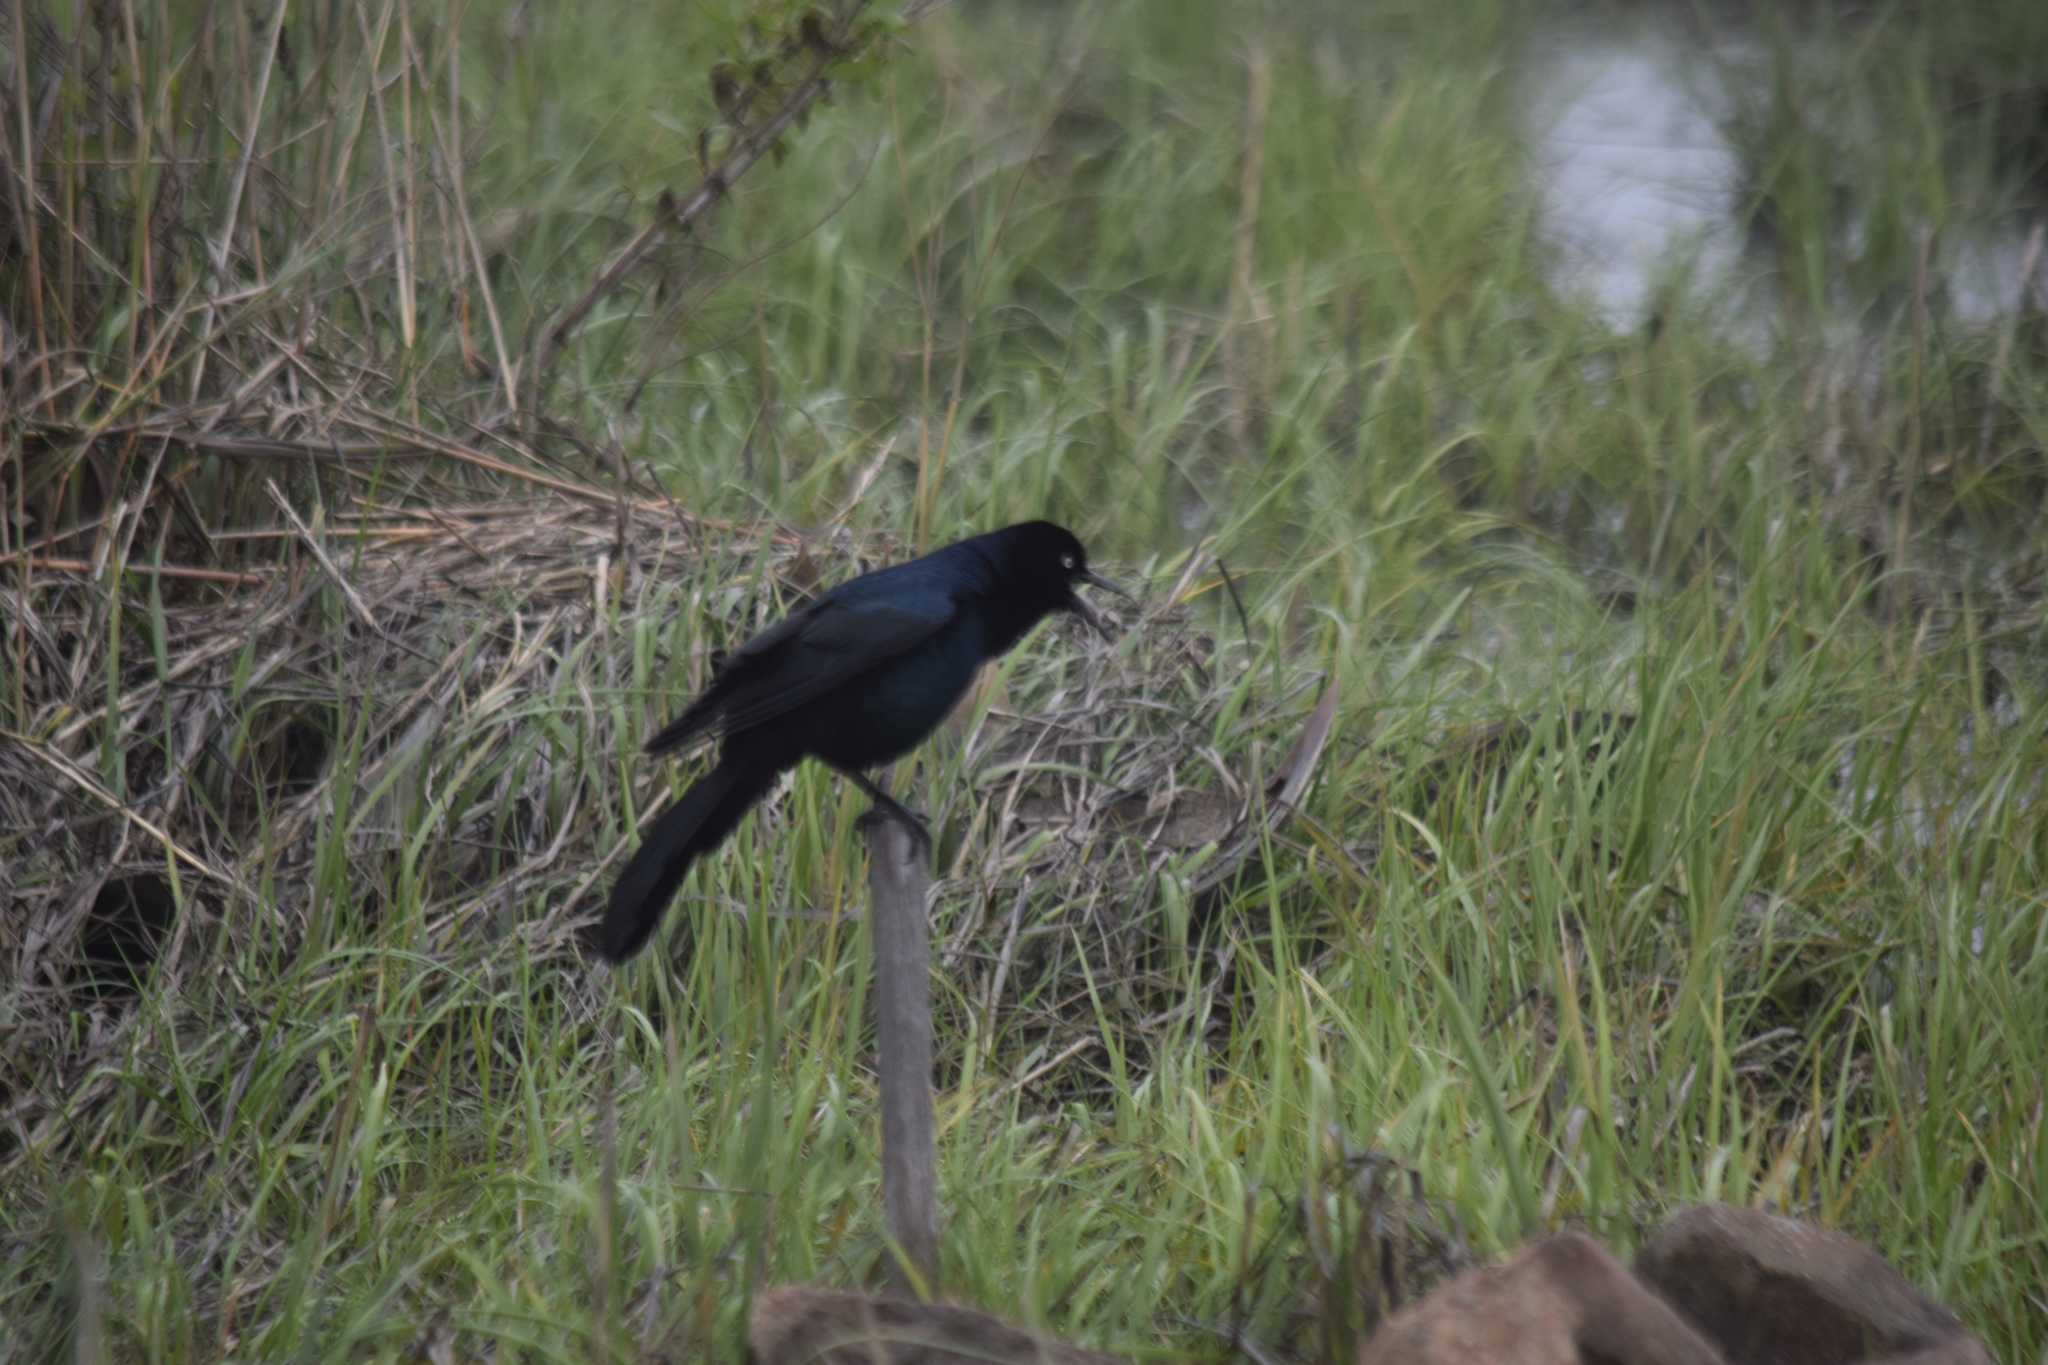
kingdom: Animalia
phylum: Chordata
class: Aves
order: Passeriformes
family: Icteridae
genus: Quiscalus
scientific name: Quiscalus quiscula
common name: Common grackle
